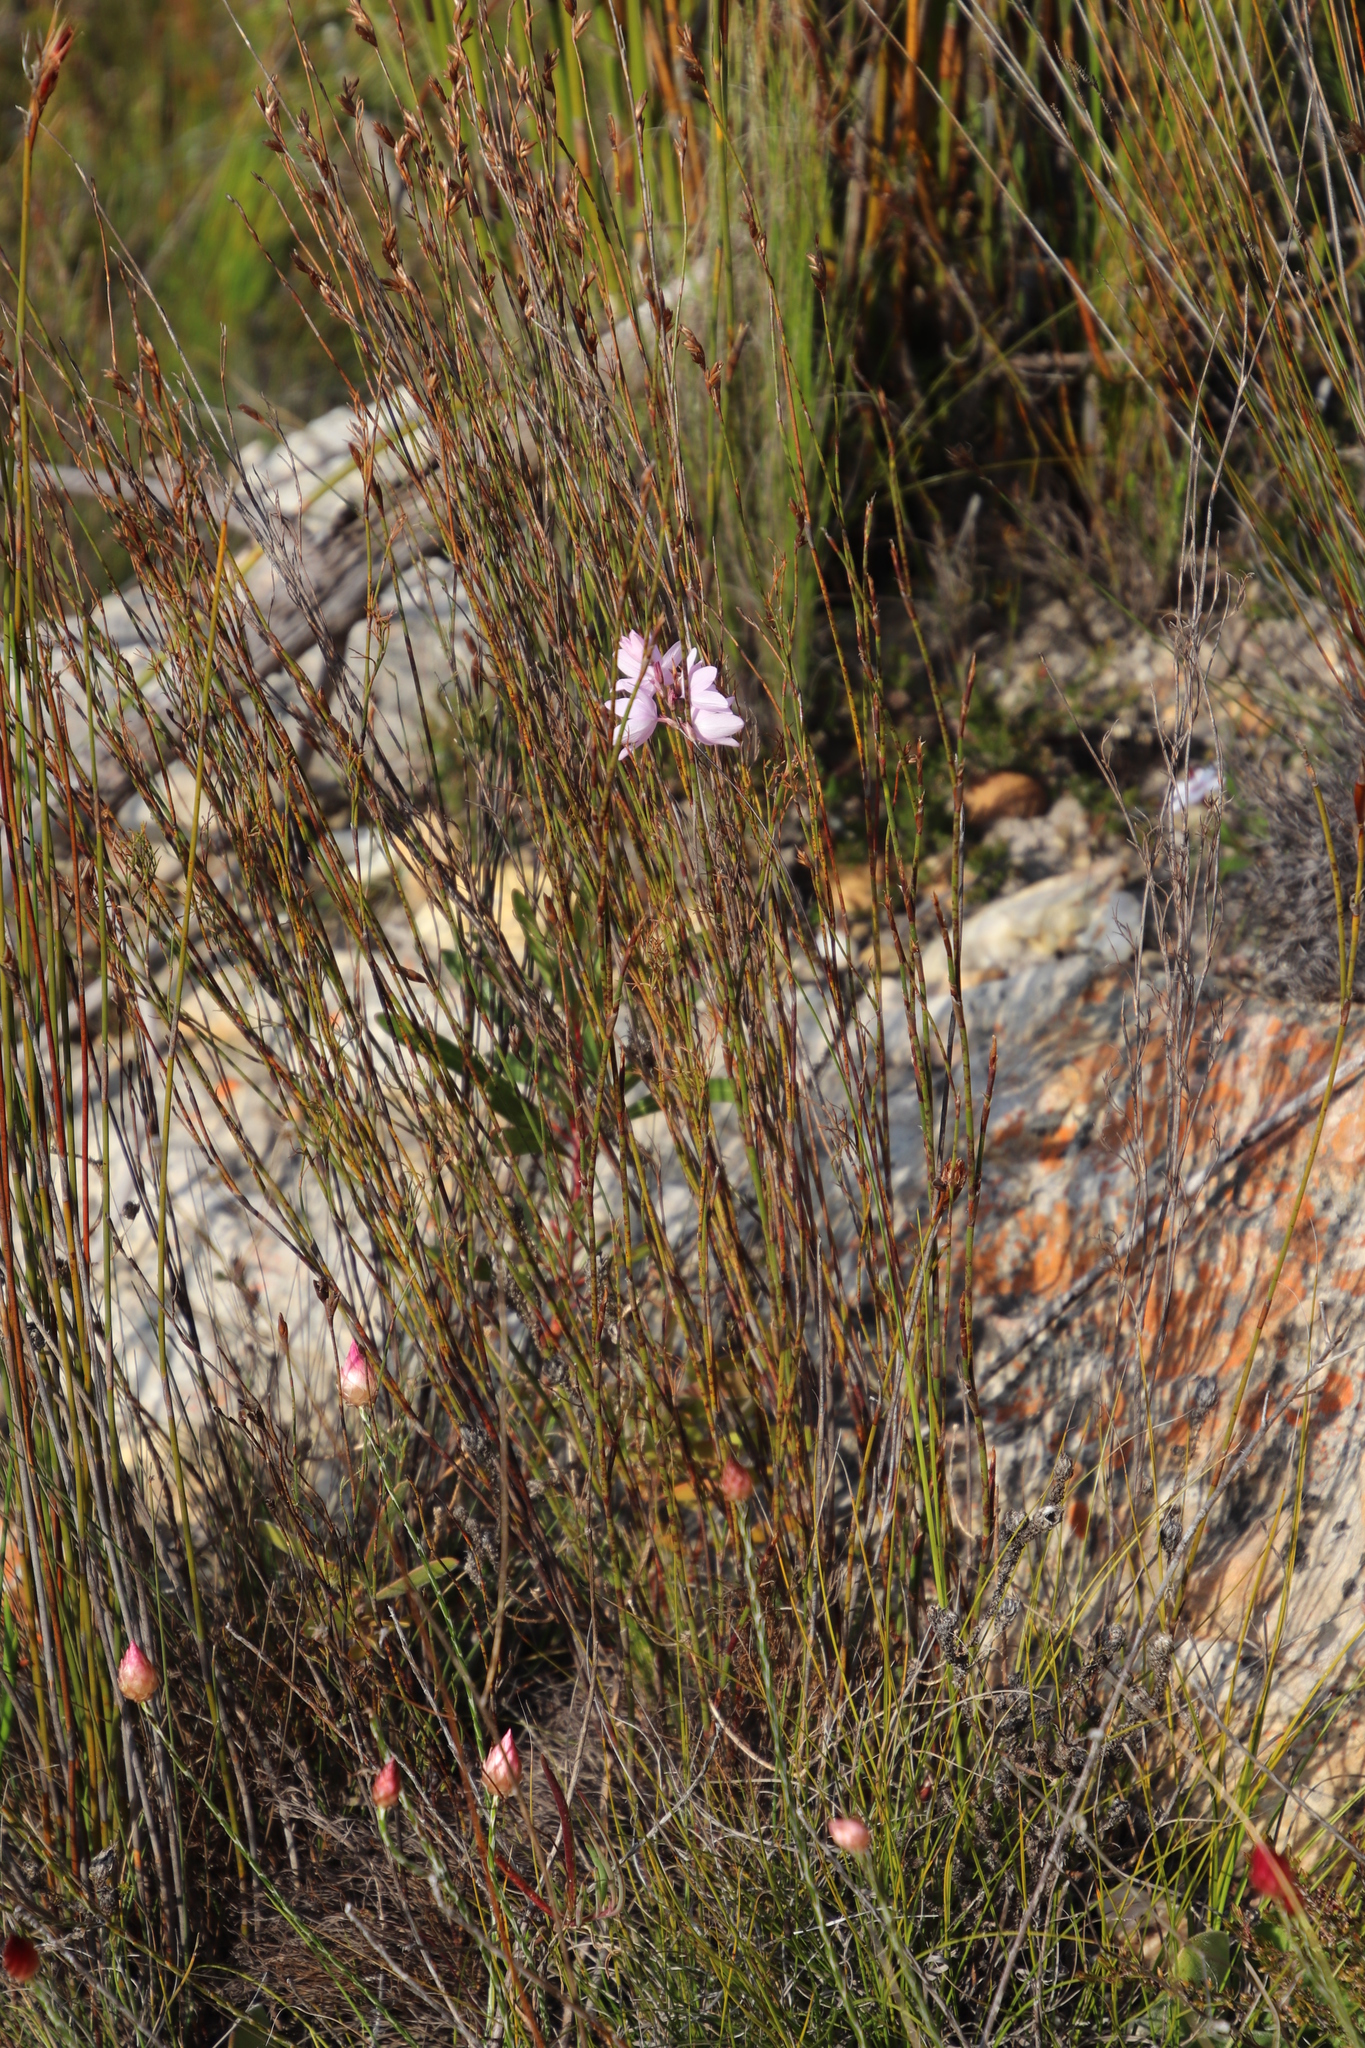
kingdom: Plantae
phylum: Tracheophyta
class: Liliopsida
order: Asparagales
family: Iridaceae
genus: Ixia
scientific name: Ixia micrandra
